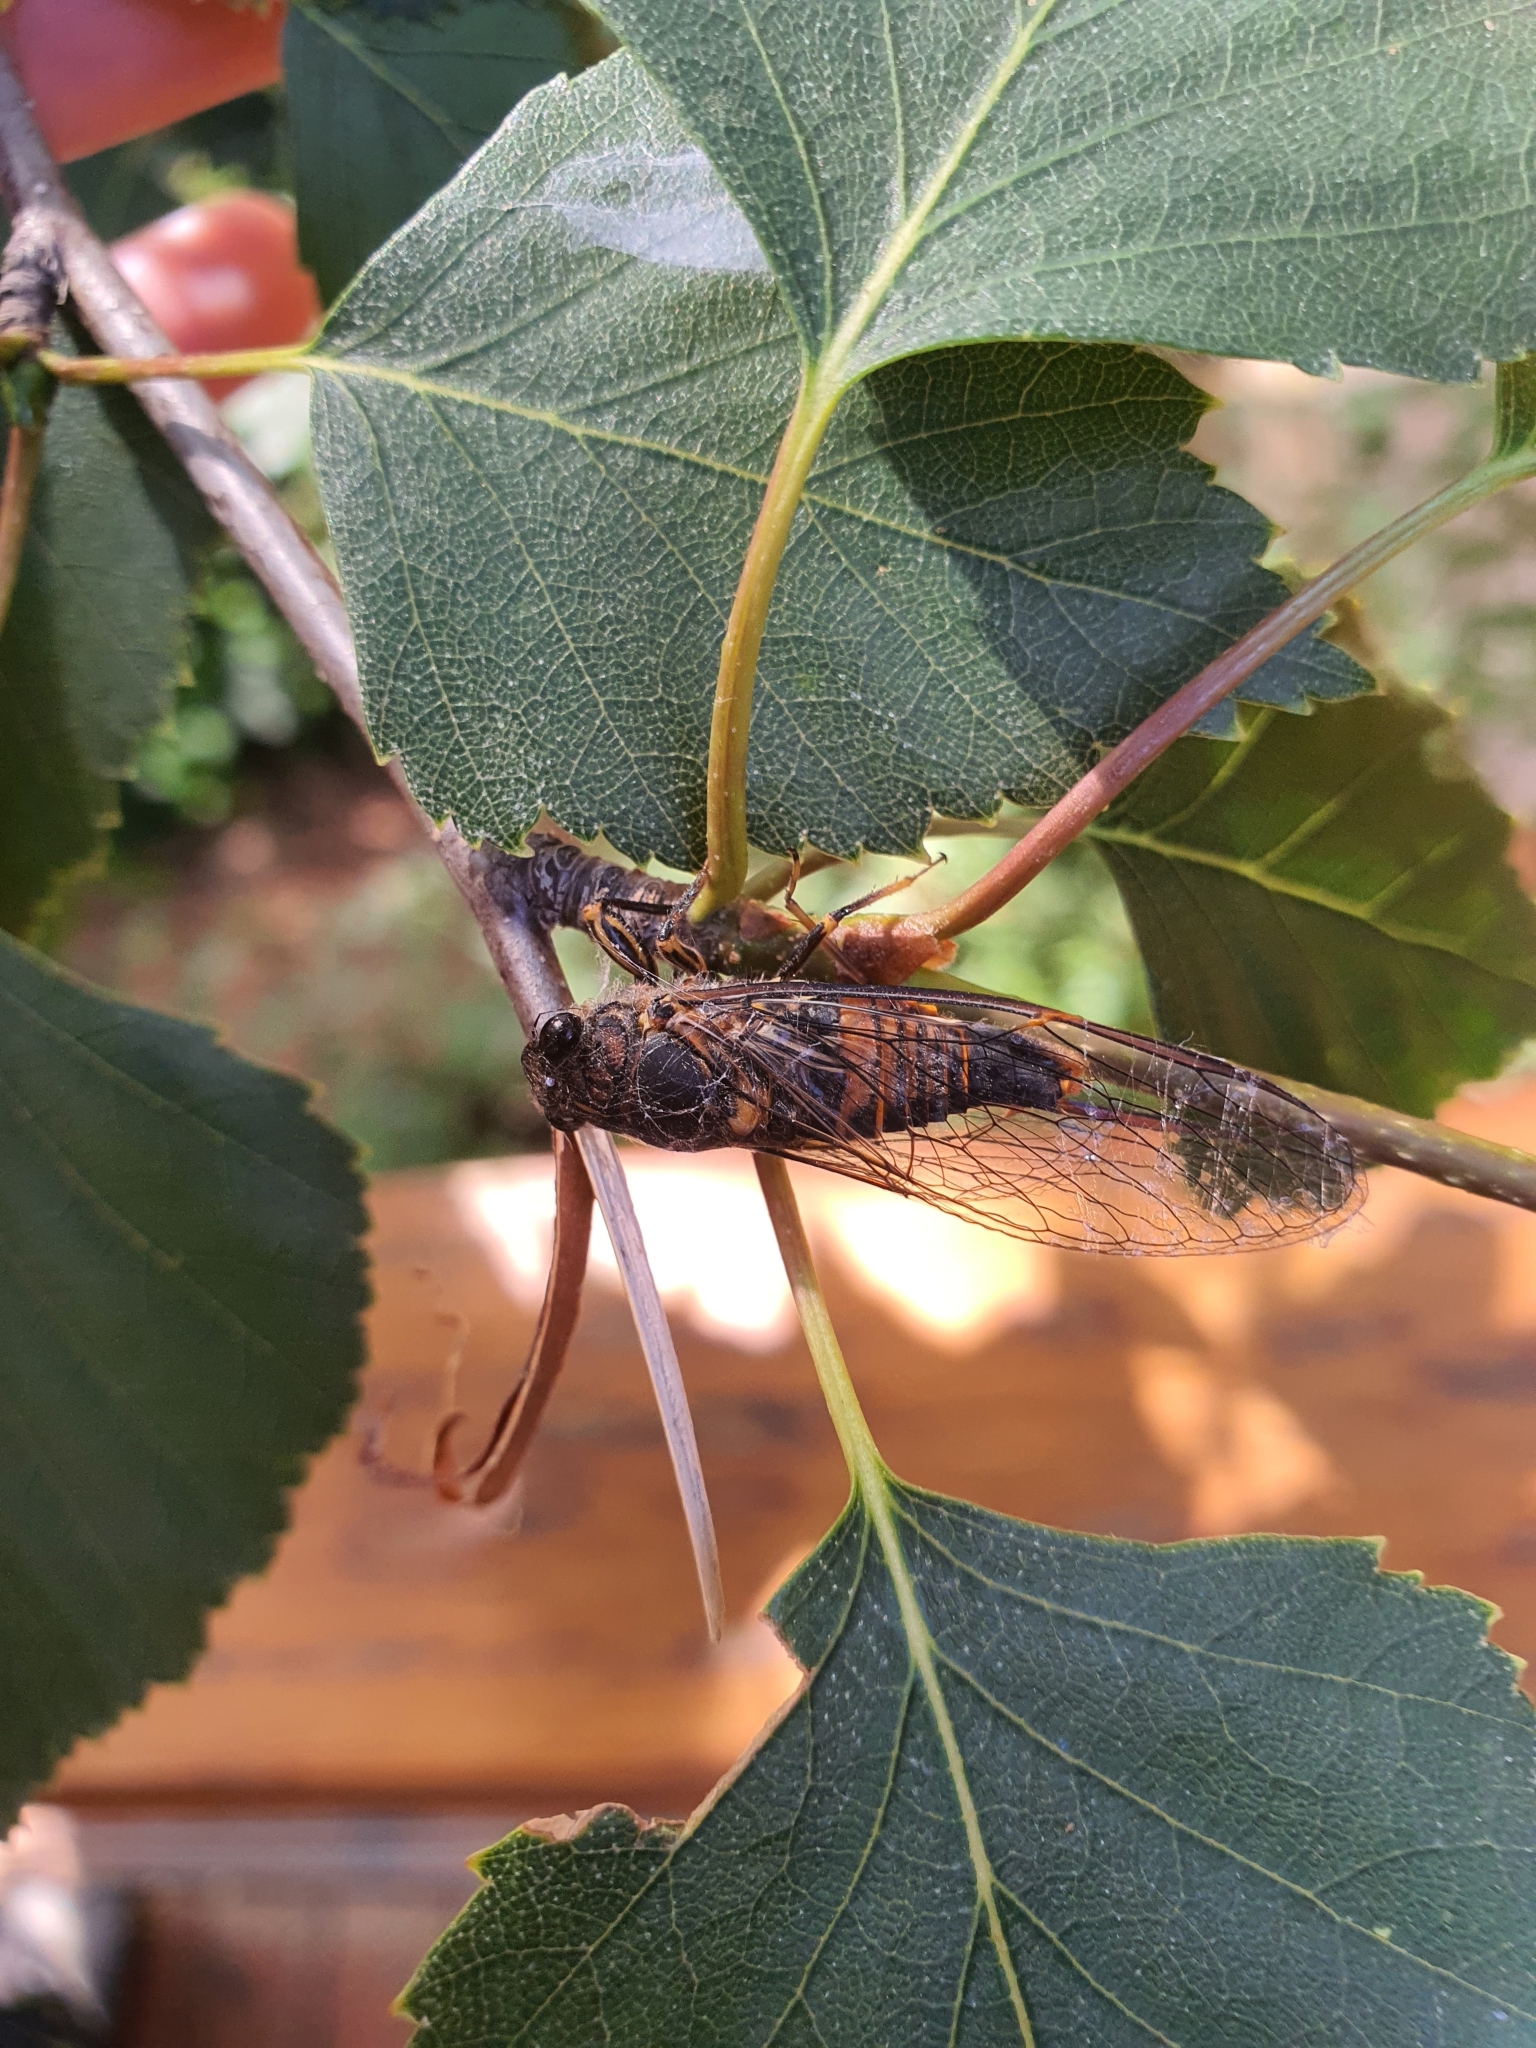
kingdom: Animalia
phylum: Arthropoda
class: Insecta
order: Hemiptera
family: Cicadidae
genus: Yoyetta
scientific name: Yoyetta robertsonae
